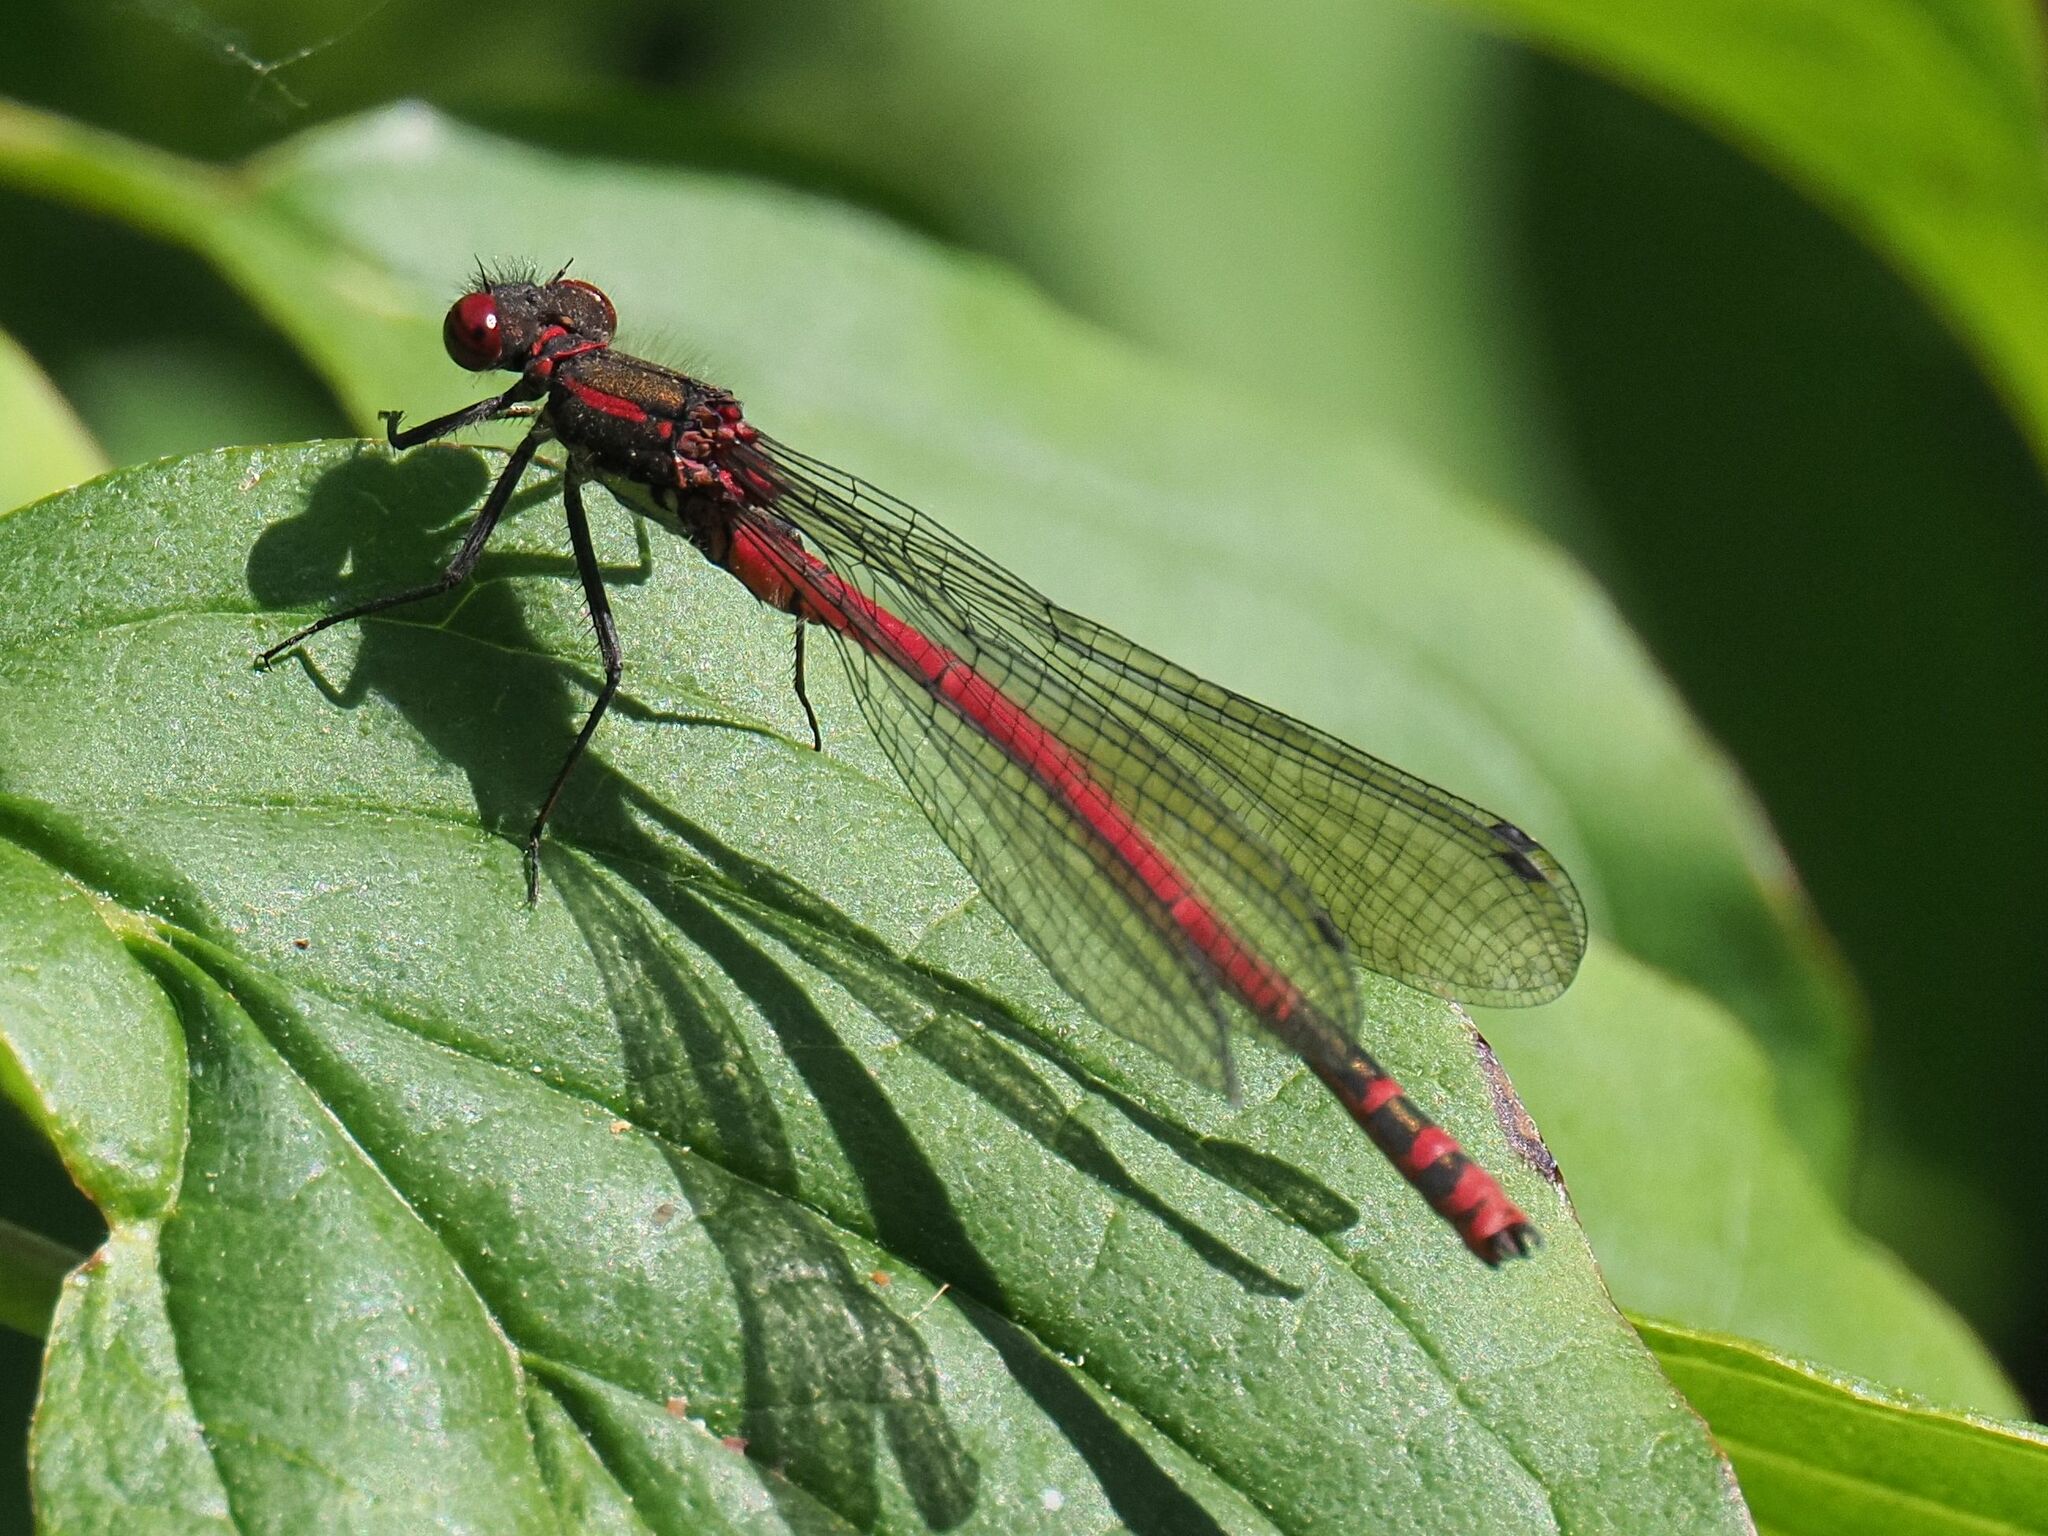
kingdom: Animalia
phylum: Arthropoda
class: Insecta
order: Odonata
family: Coenagrionidae
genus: Pyrrhosoma
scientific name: Pyrrhosoma nymphula
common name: Large red damsel
